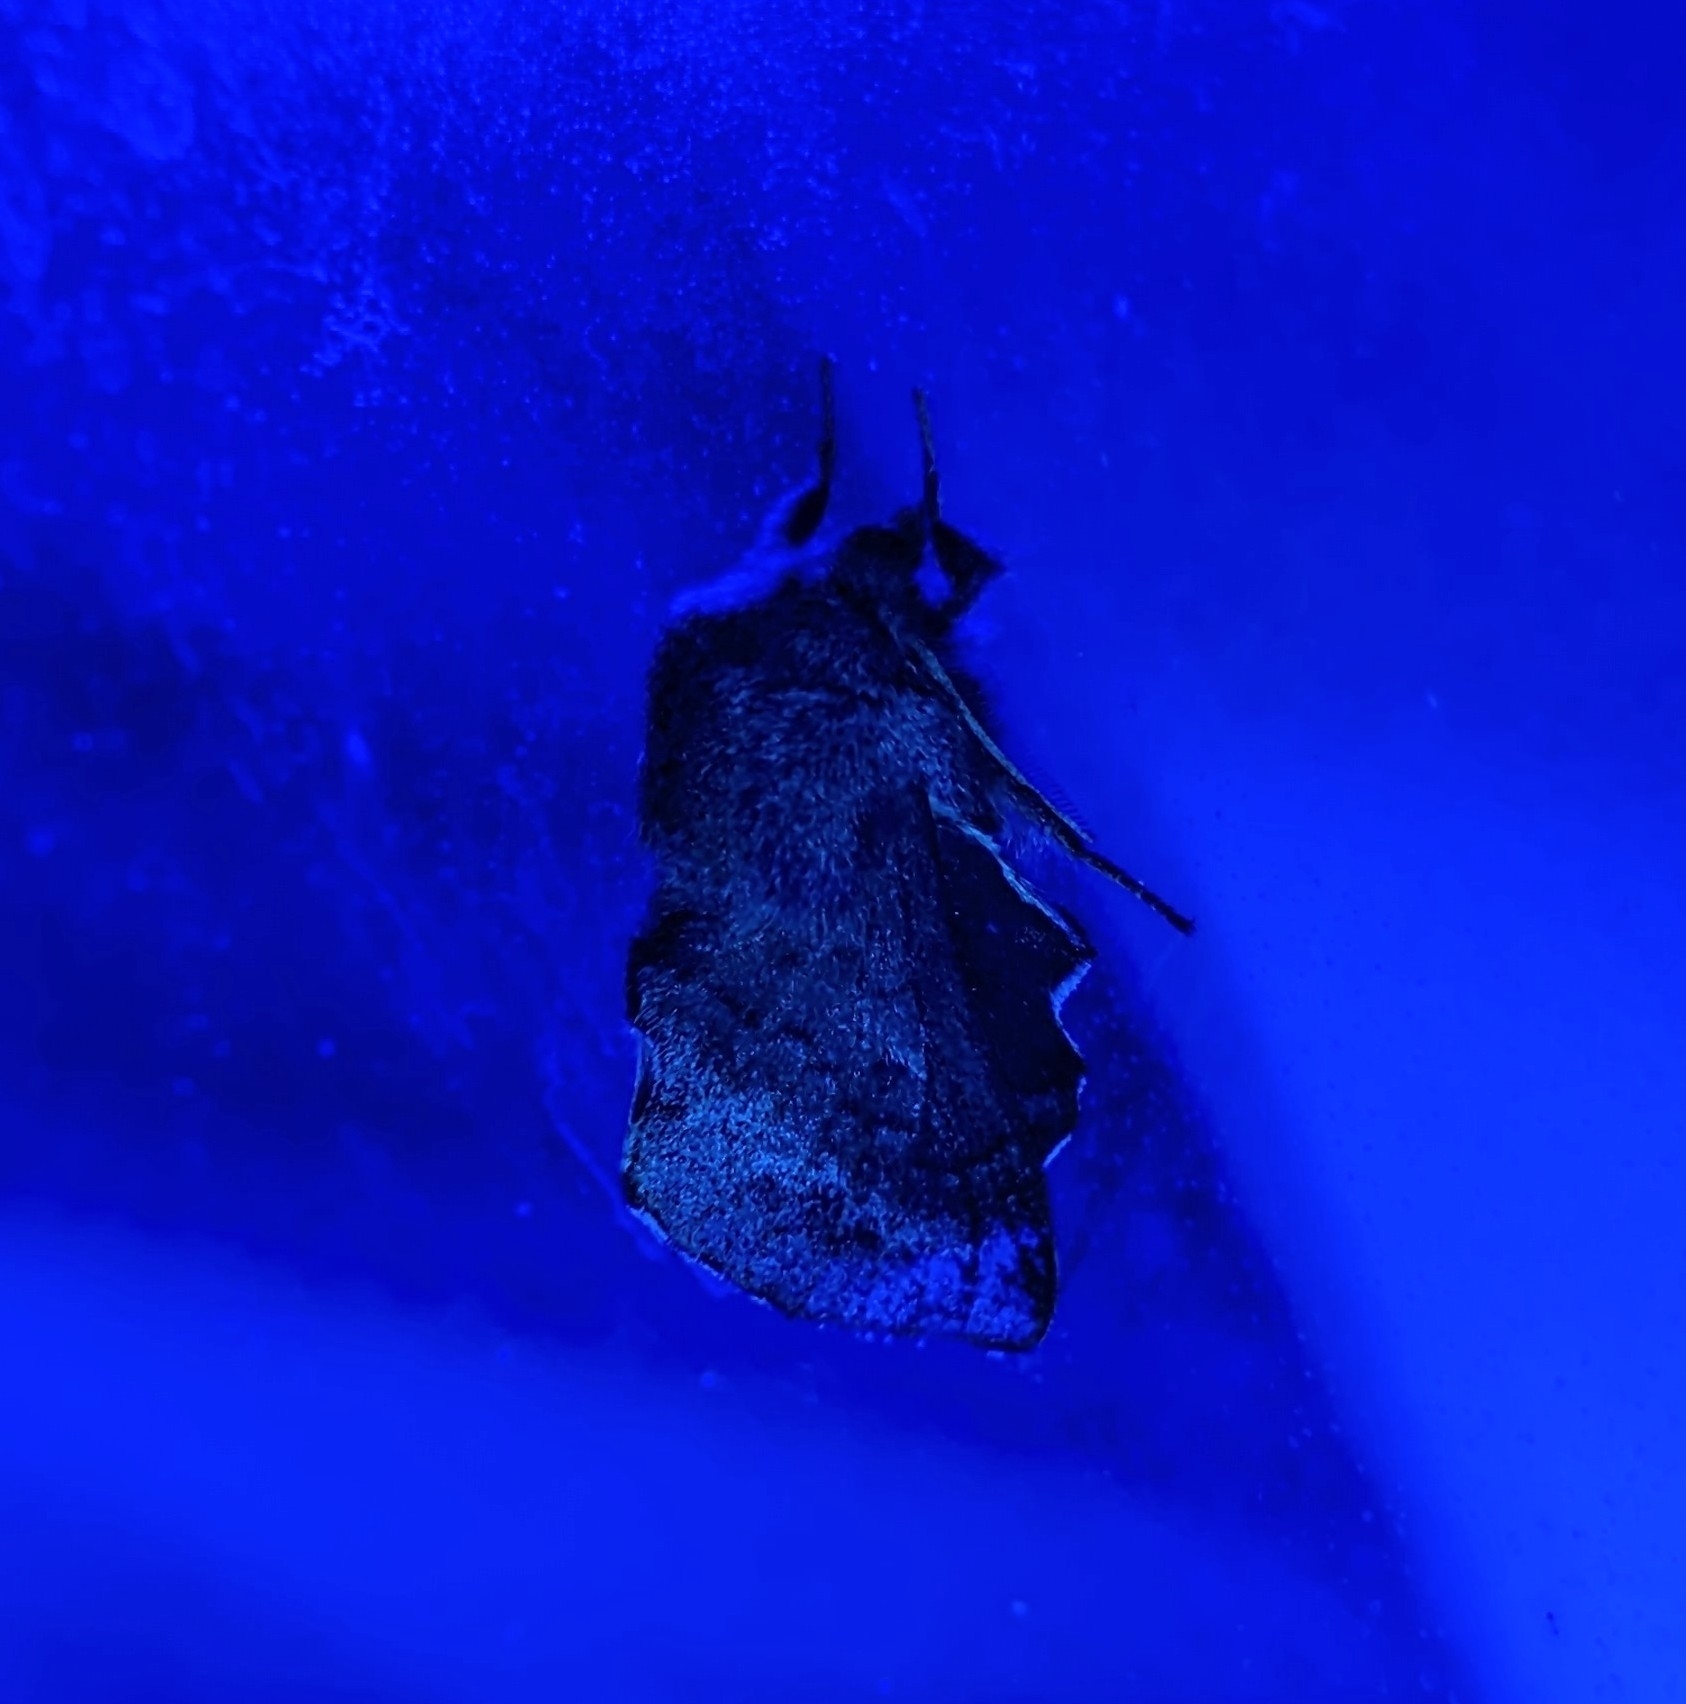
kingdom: Animalia
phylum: Arthropoda
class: Insecta
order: Lepidoptera
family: Lasiocampidae
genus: Phyllodesma
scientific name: Phyllodesma americana
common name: American lappet moth
